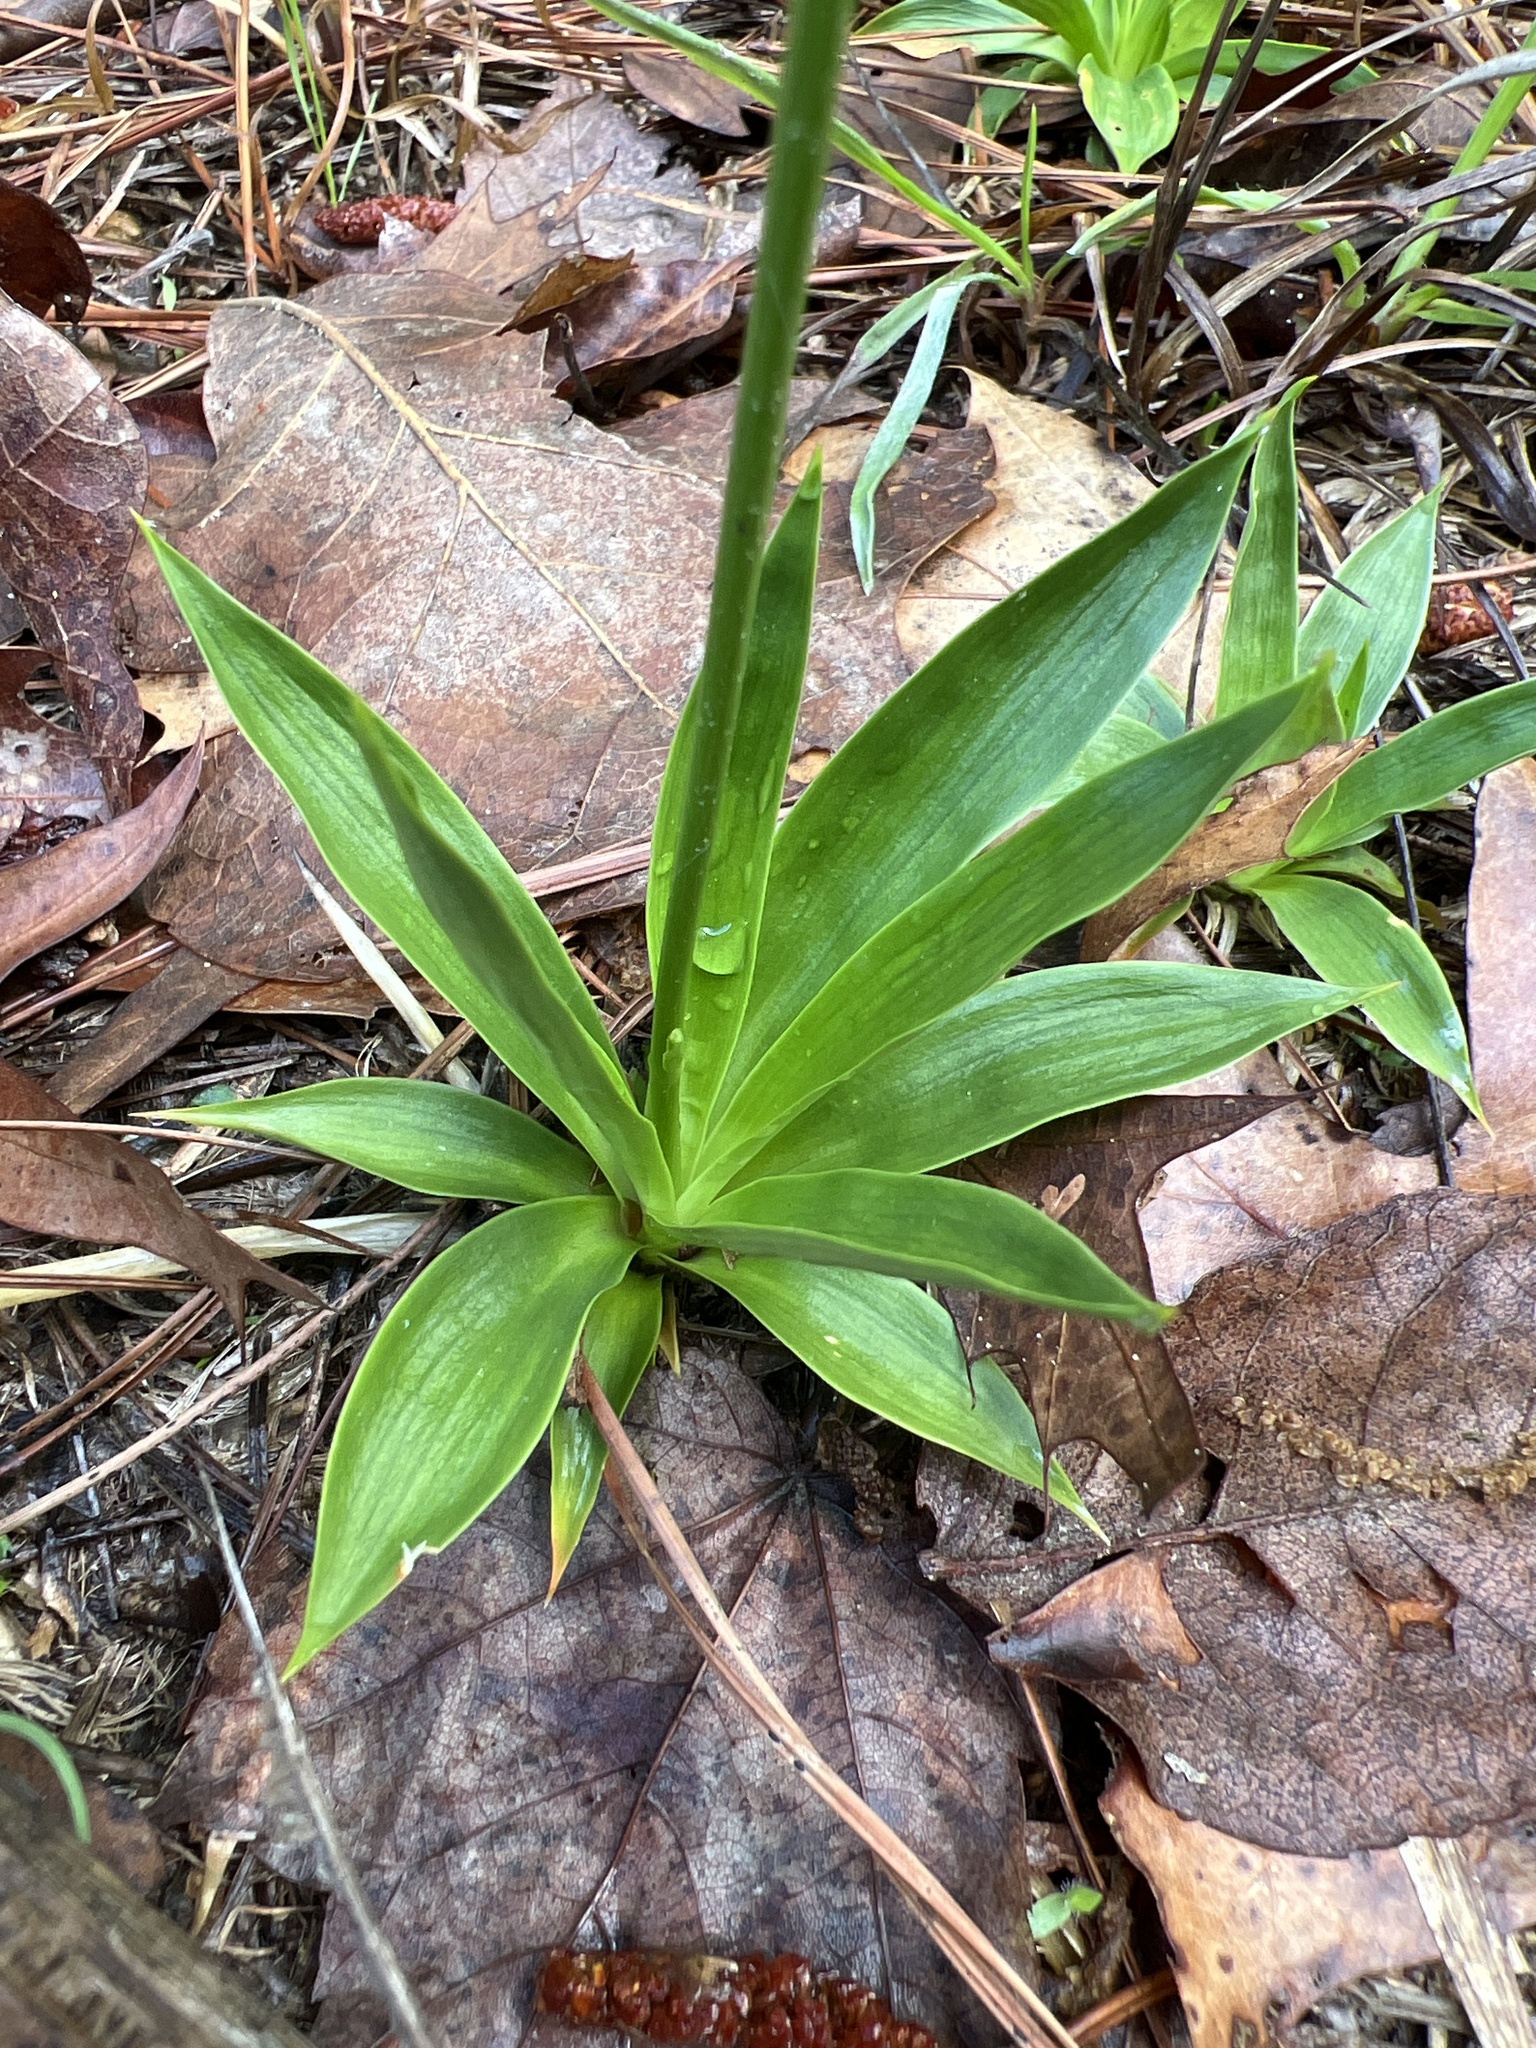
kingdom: Plantae
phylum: Tracheophyta
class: Liliopsida
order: Dioscoreales
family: Nartheciaceae
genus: Aletris
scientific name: Aletris farinosa
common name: Colicroot
